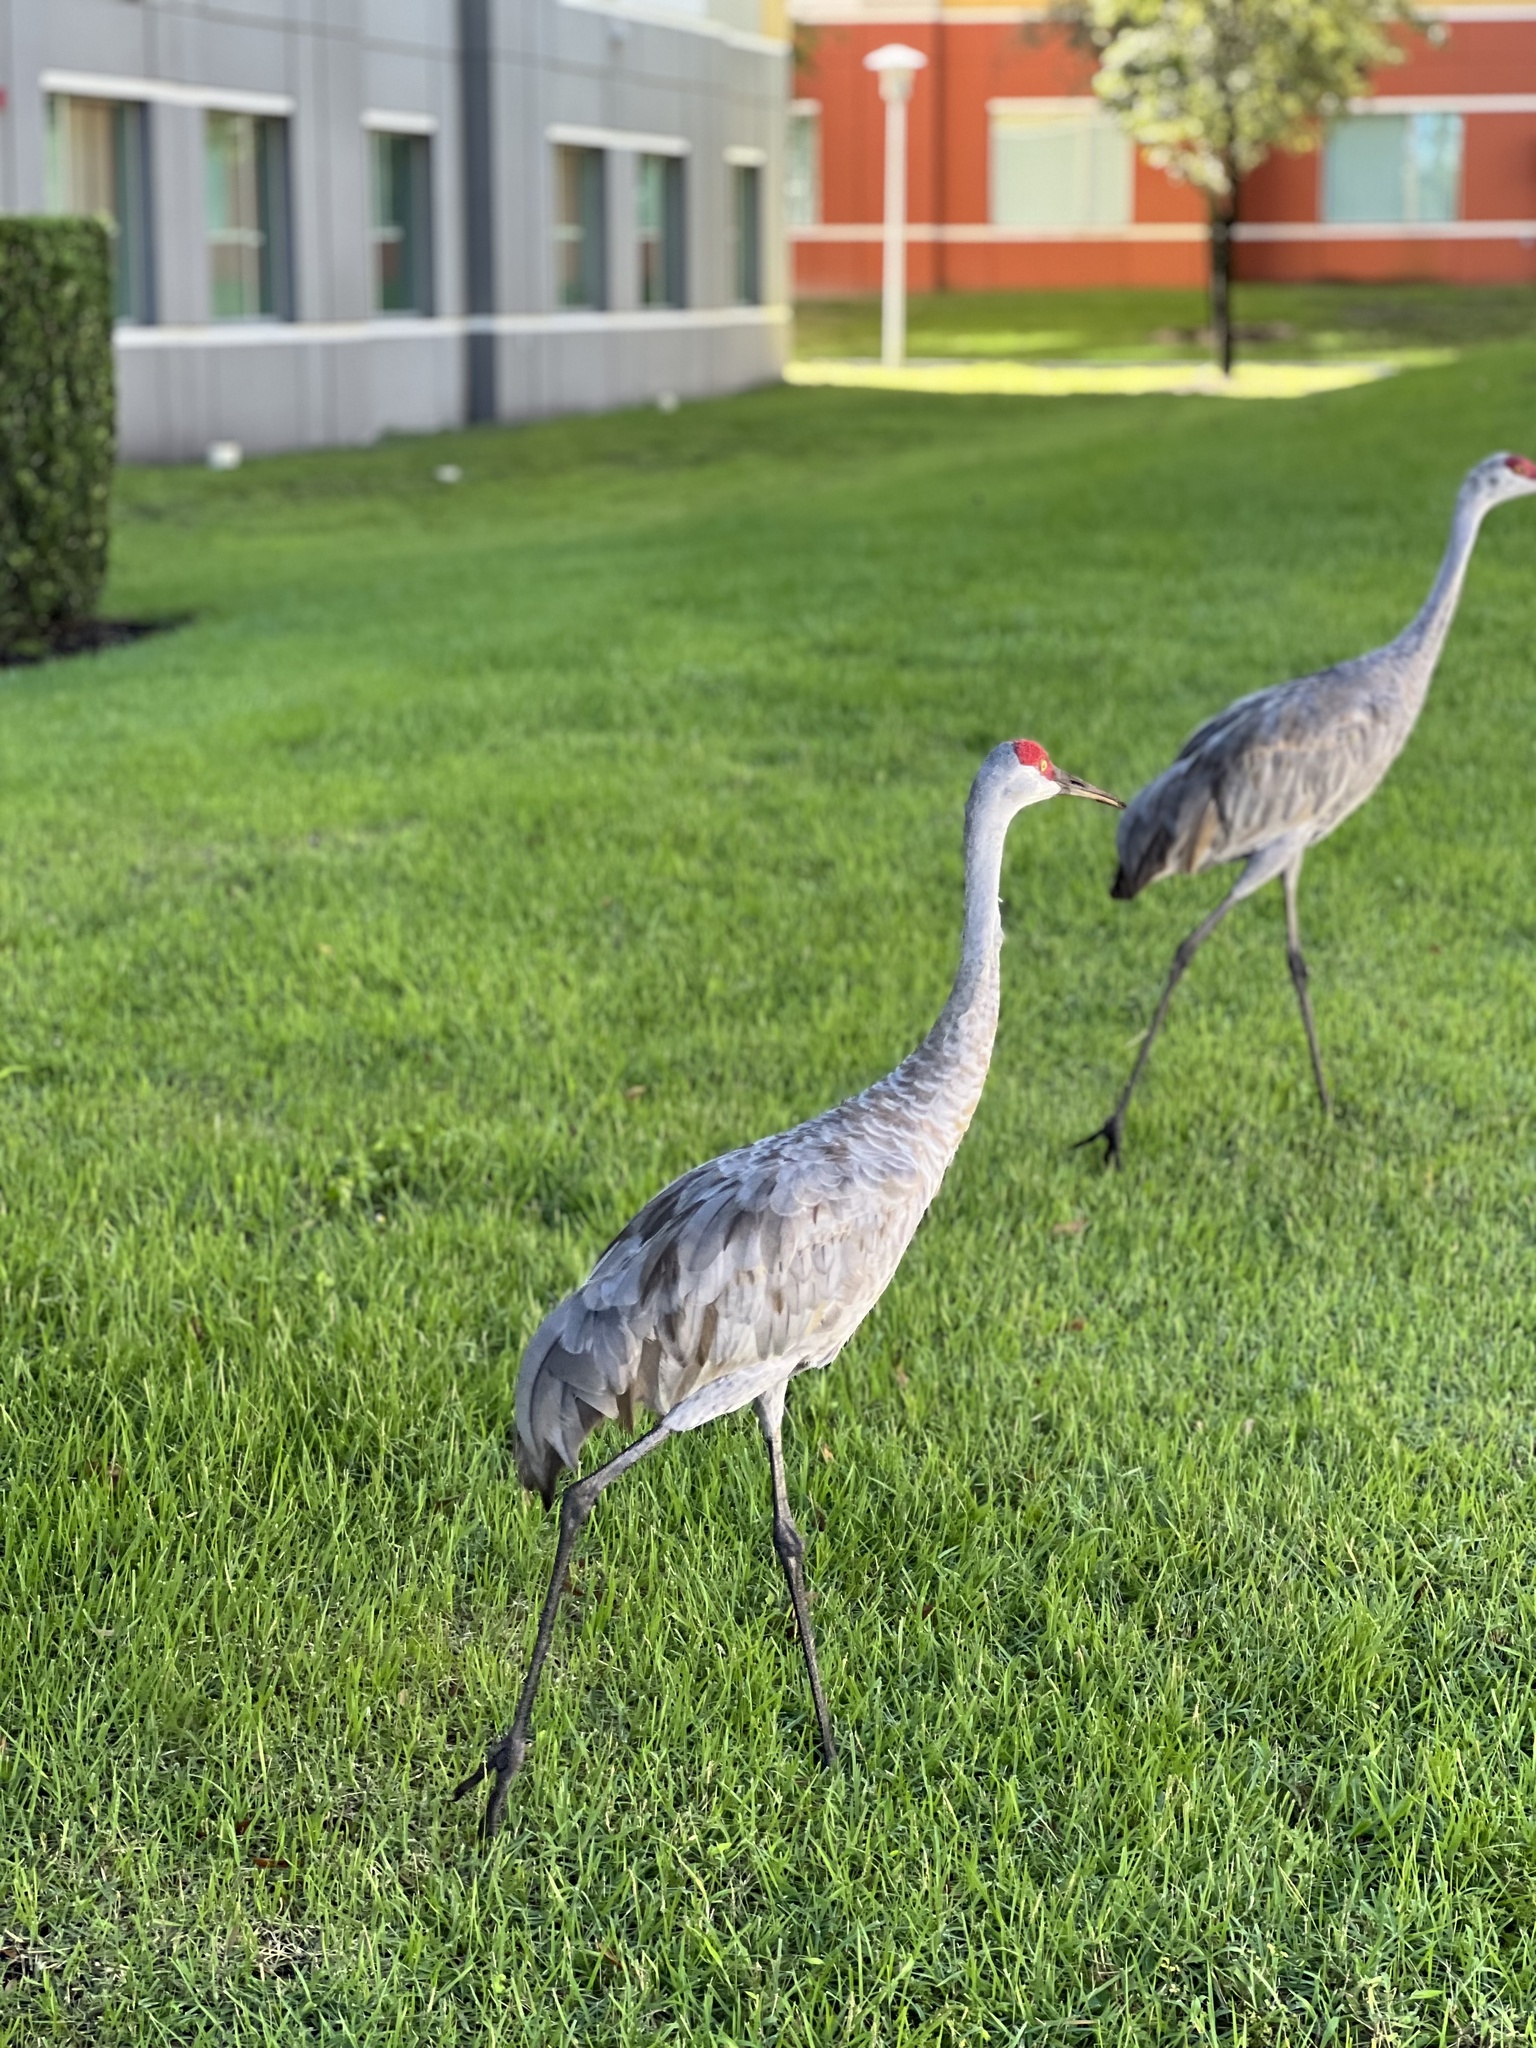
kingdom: Animalia
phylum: Chordata
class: Aves
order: Gruiformes
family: Gruidae
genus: Grus
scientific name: Grus canadensis
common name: Sandhill crane
